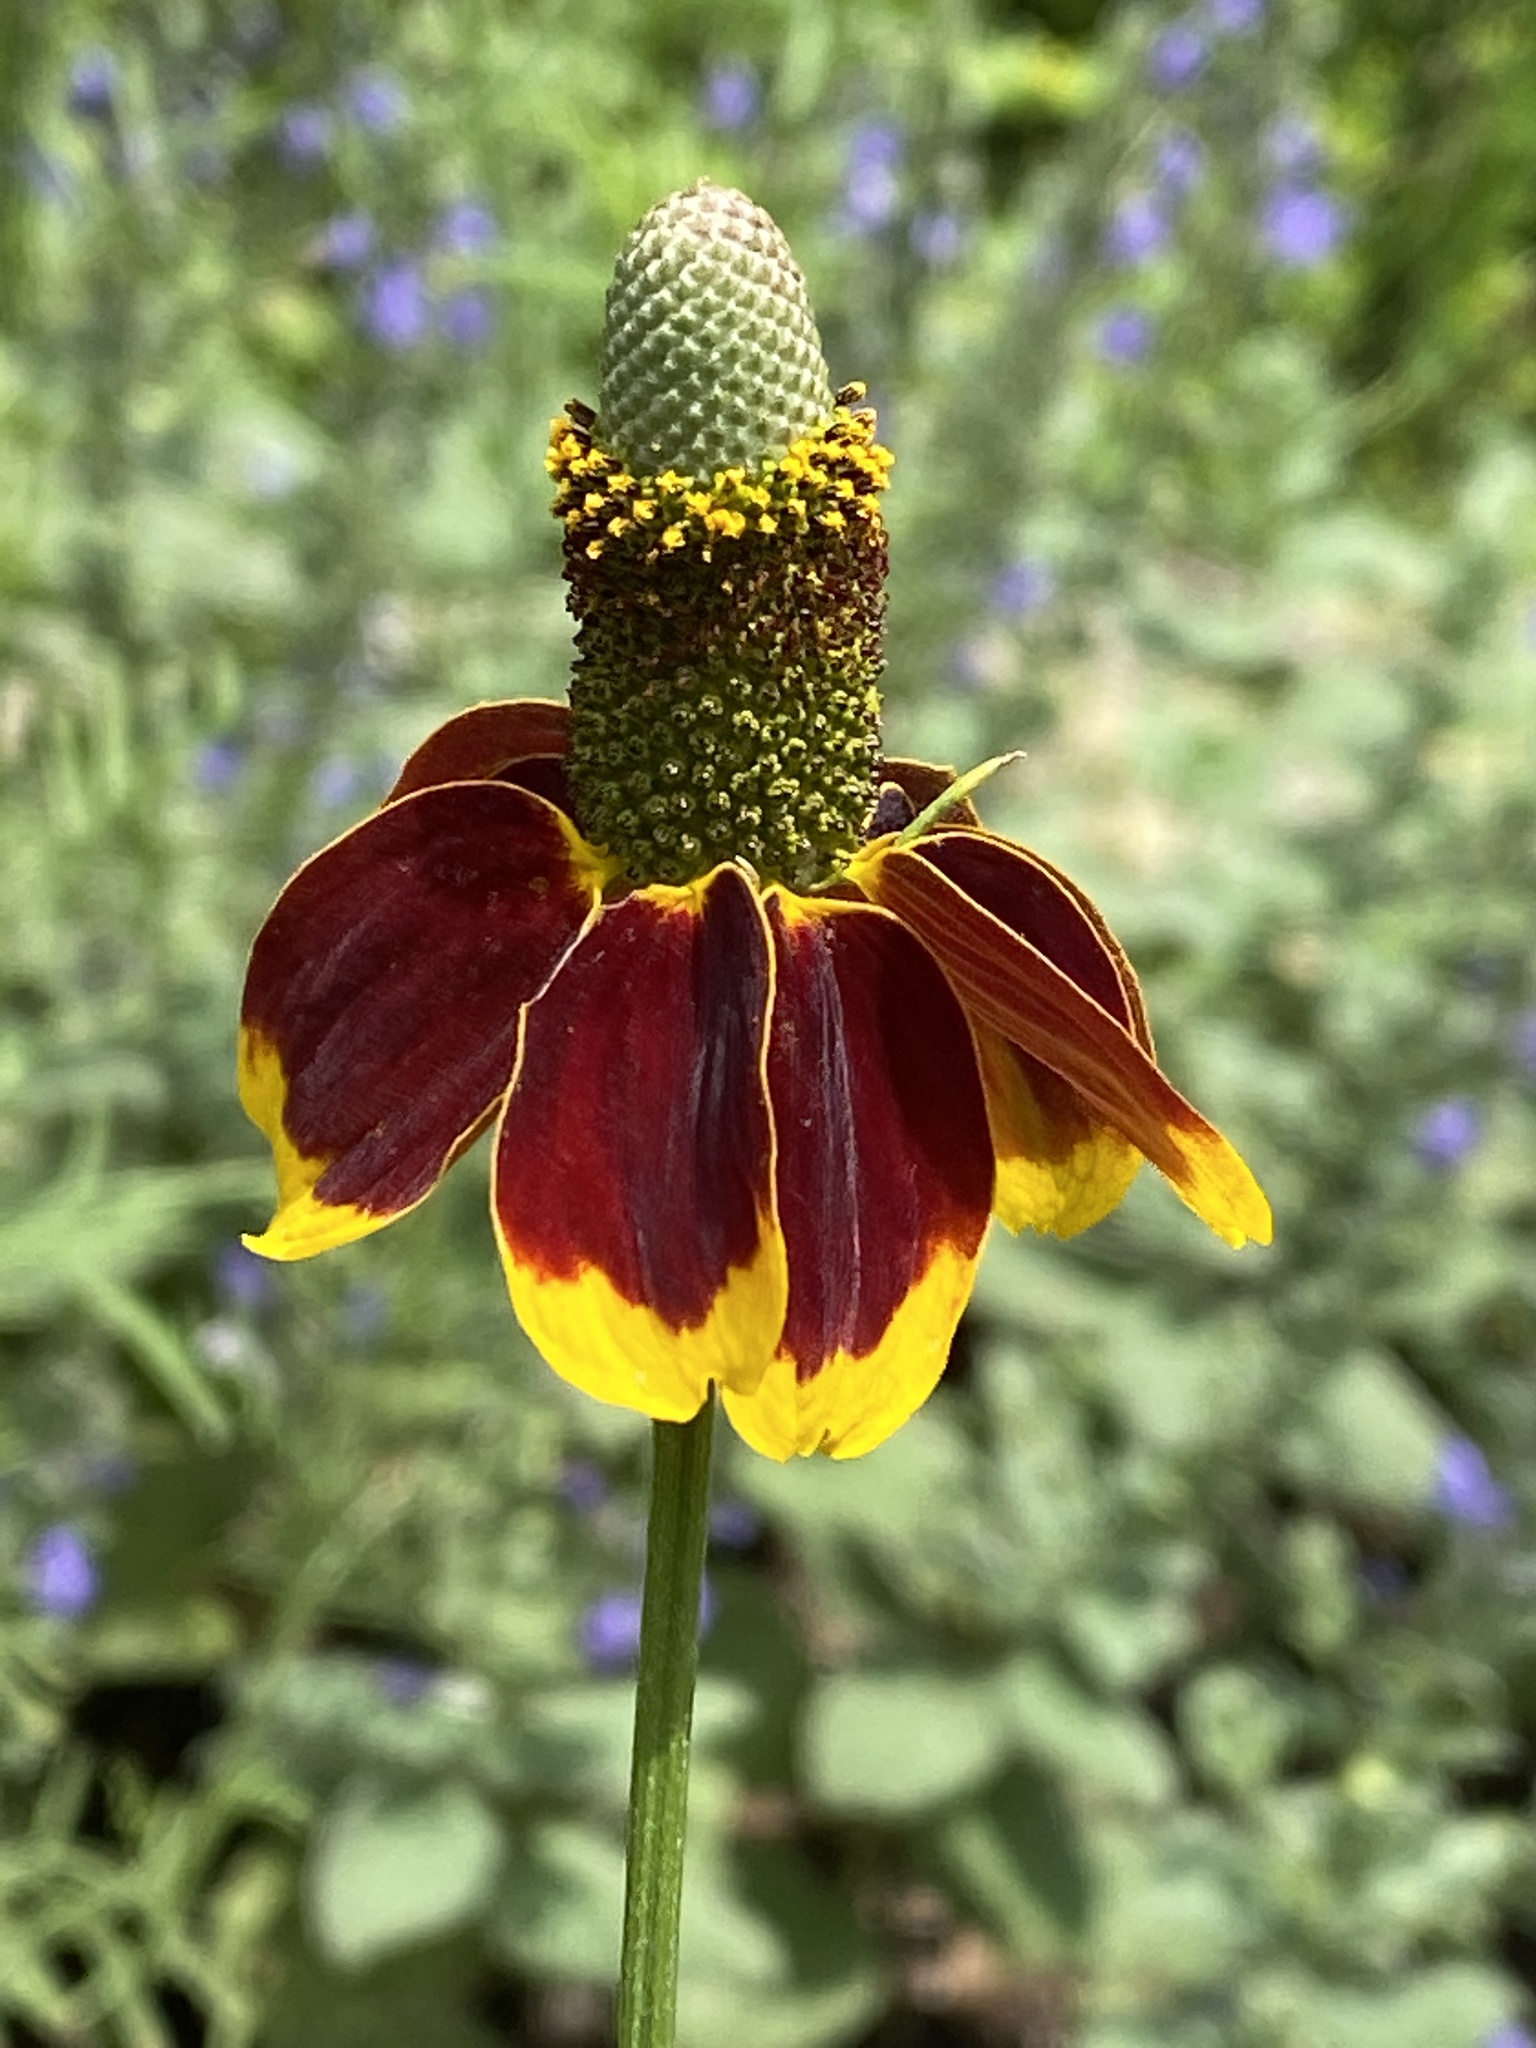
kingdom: Plantae
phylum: Tracheophyta
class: Magnoliopsida
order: Asterales
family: Asteraceae
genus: Ratibida
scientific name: Ratibida columnifera
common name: Prairie coneflower
